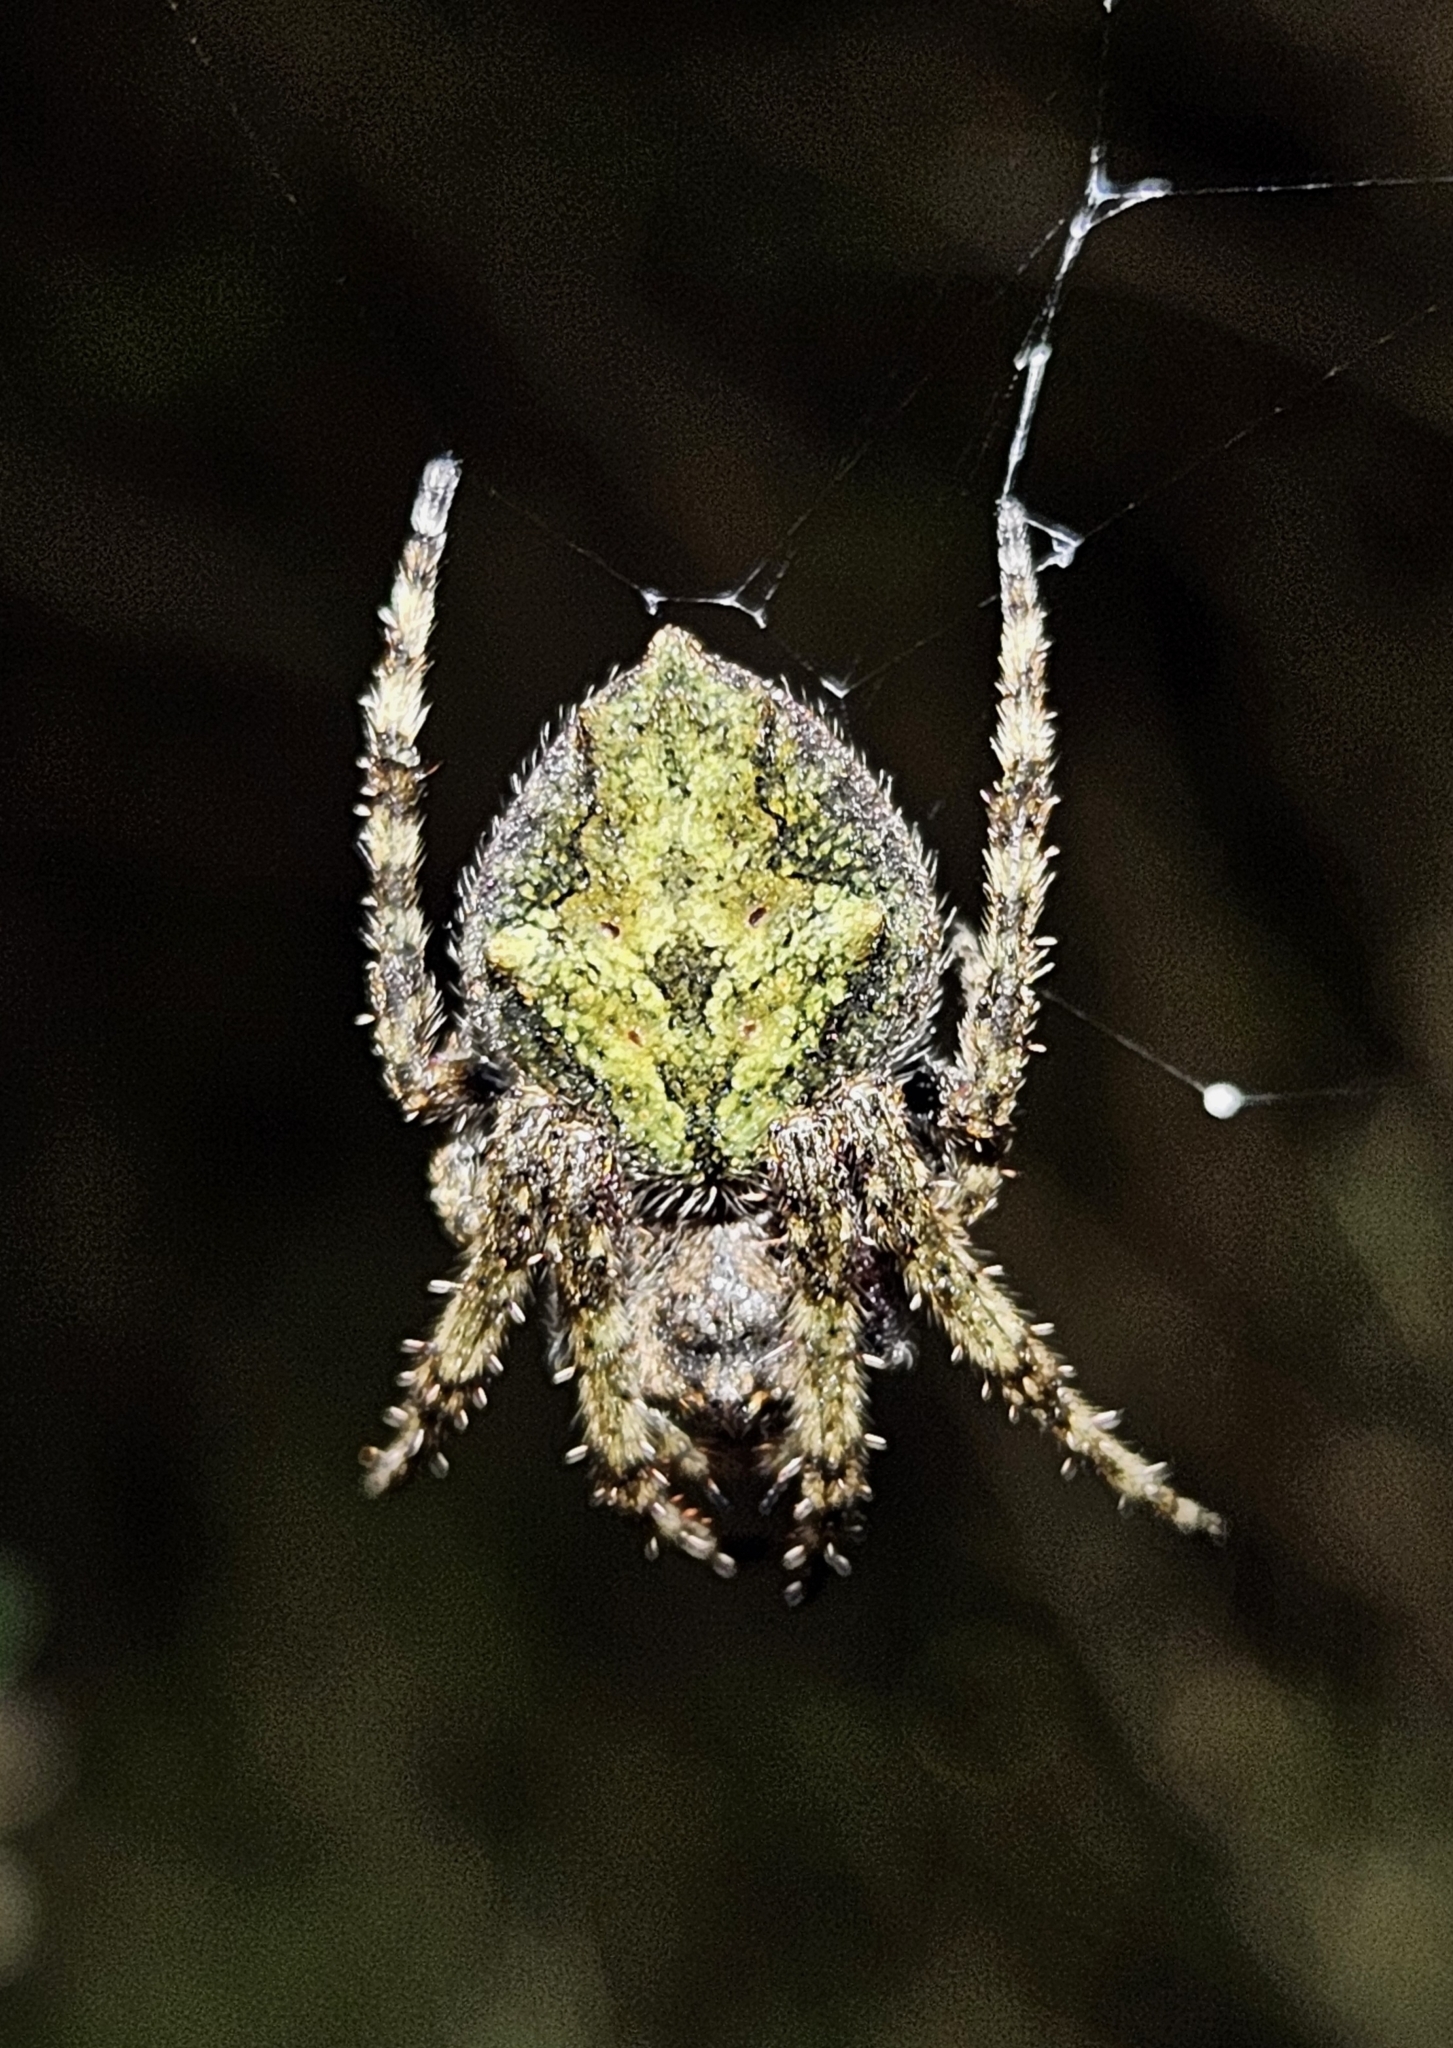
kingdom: Animalia
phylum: Arthropoda
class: Arachnida
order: Araneae
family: Araneidae
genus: Eriophora
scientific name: Eriophora pustulosa
